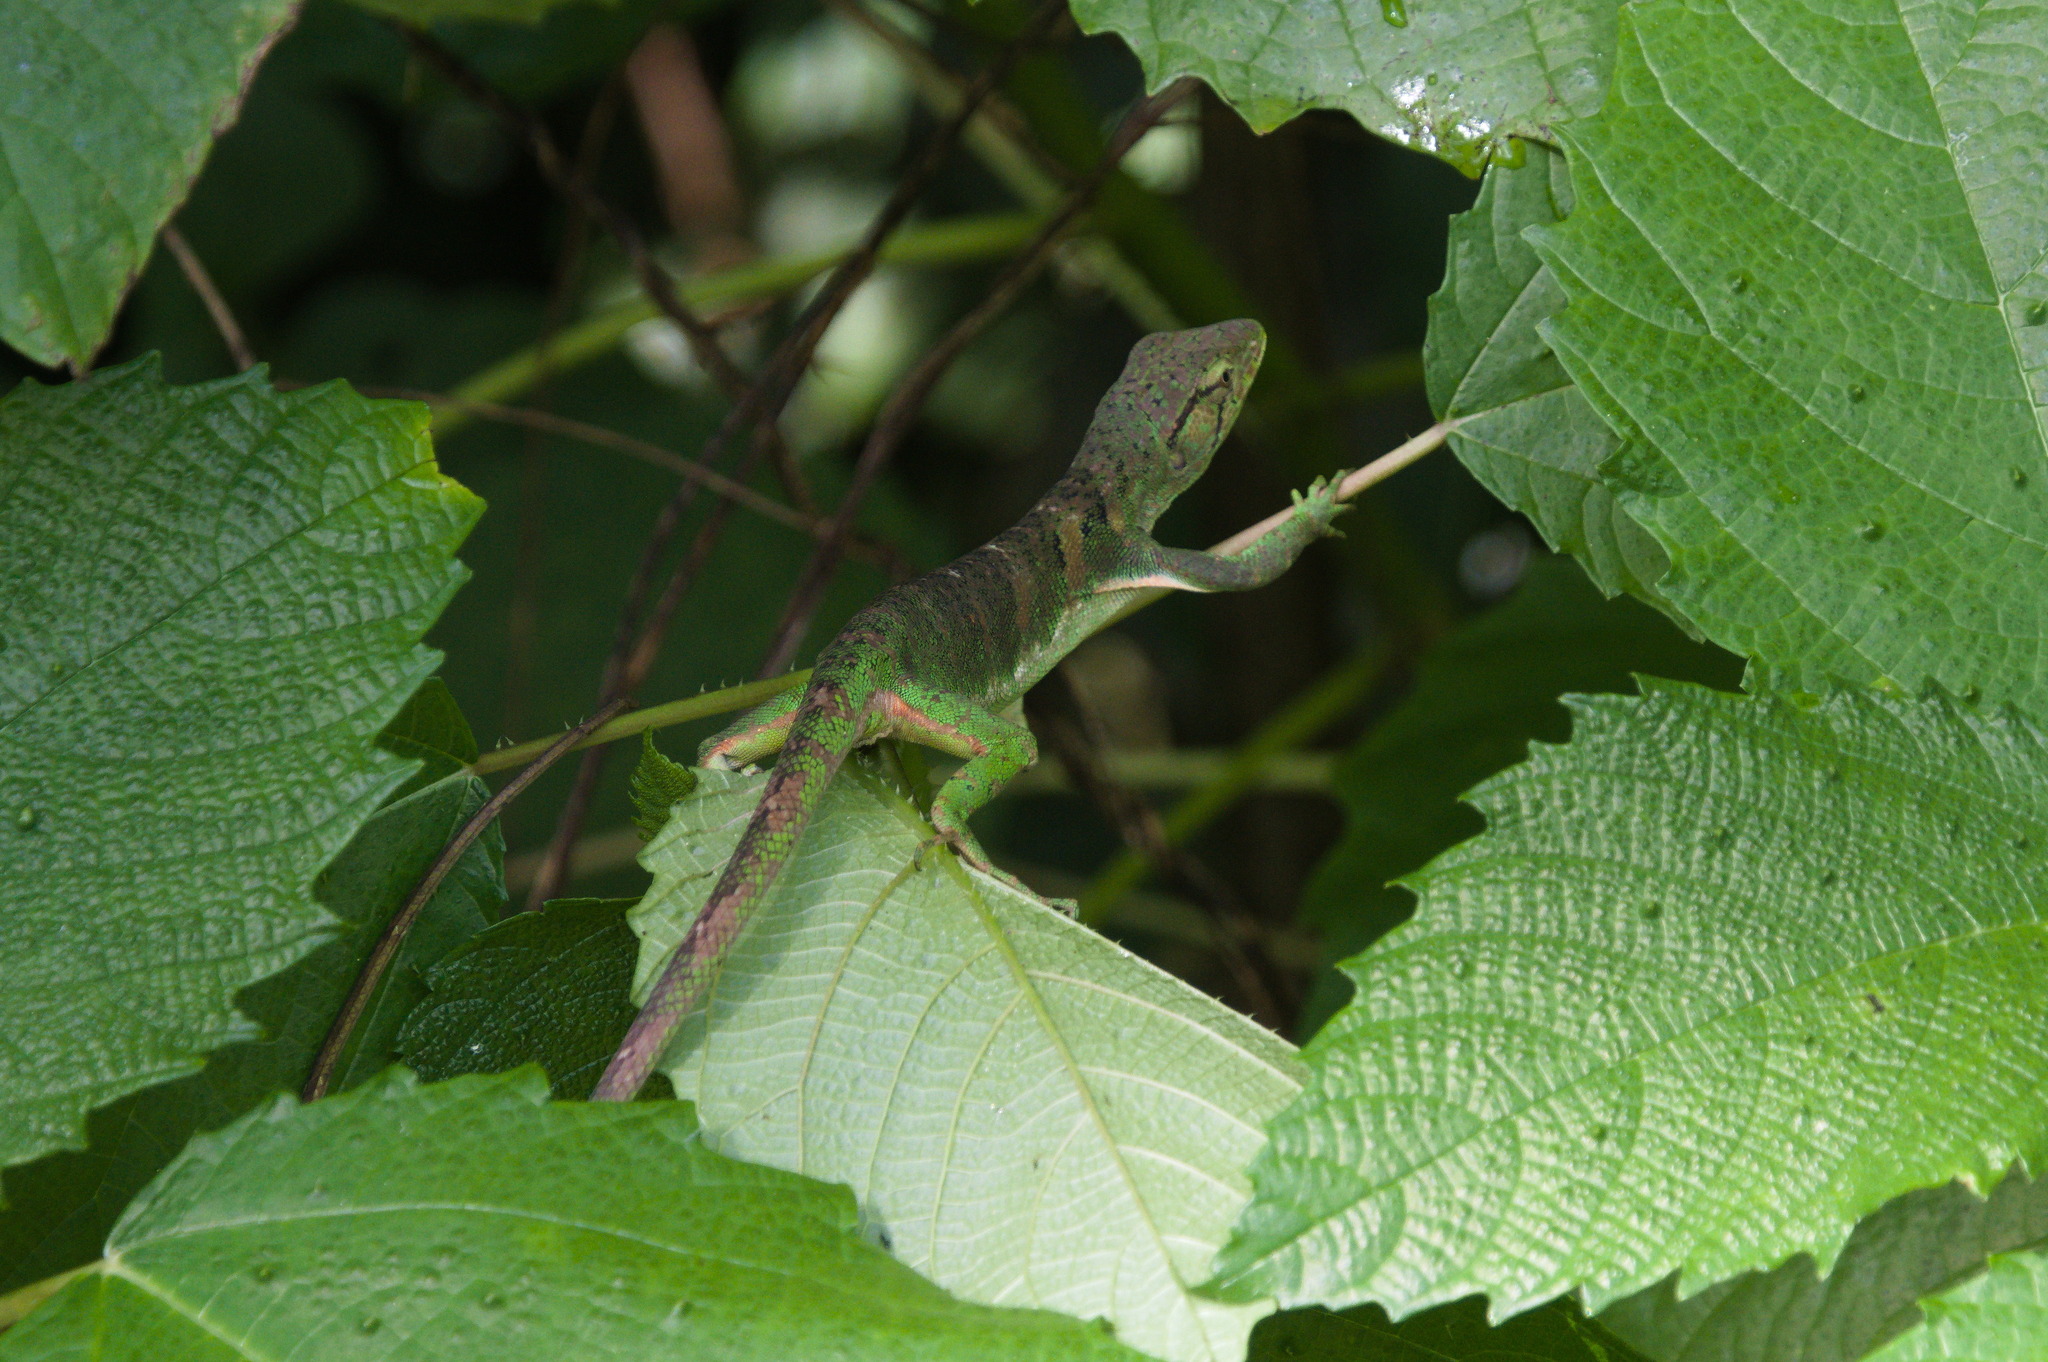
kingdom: Animalia
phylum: Chordata
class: Squamata
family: Polychrotidae
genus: Polychrus
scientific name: Polychrus marmoratus
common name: Many-colored bush anole
